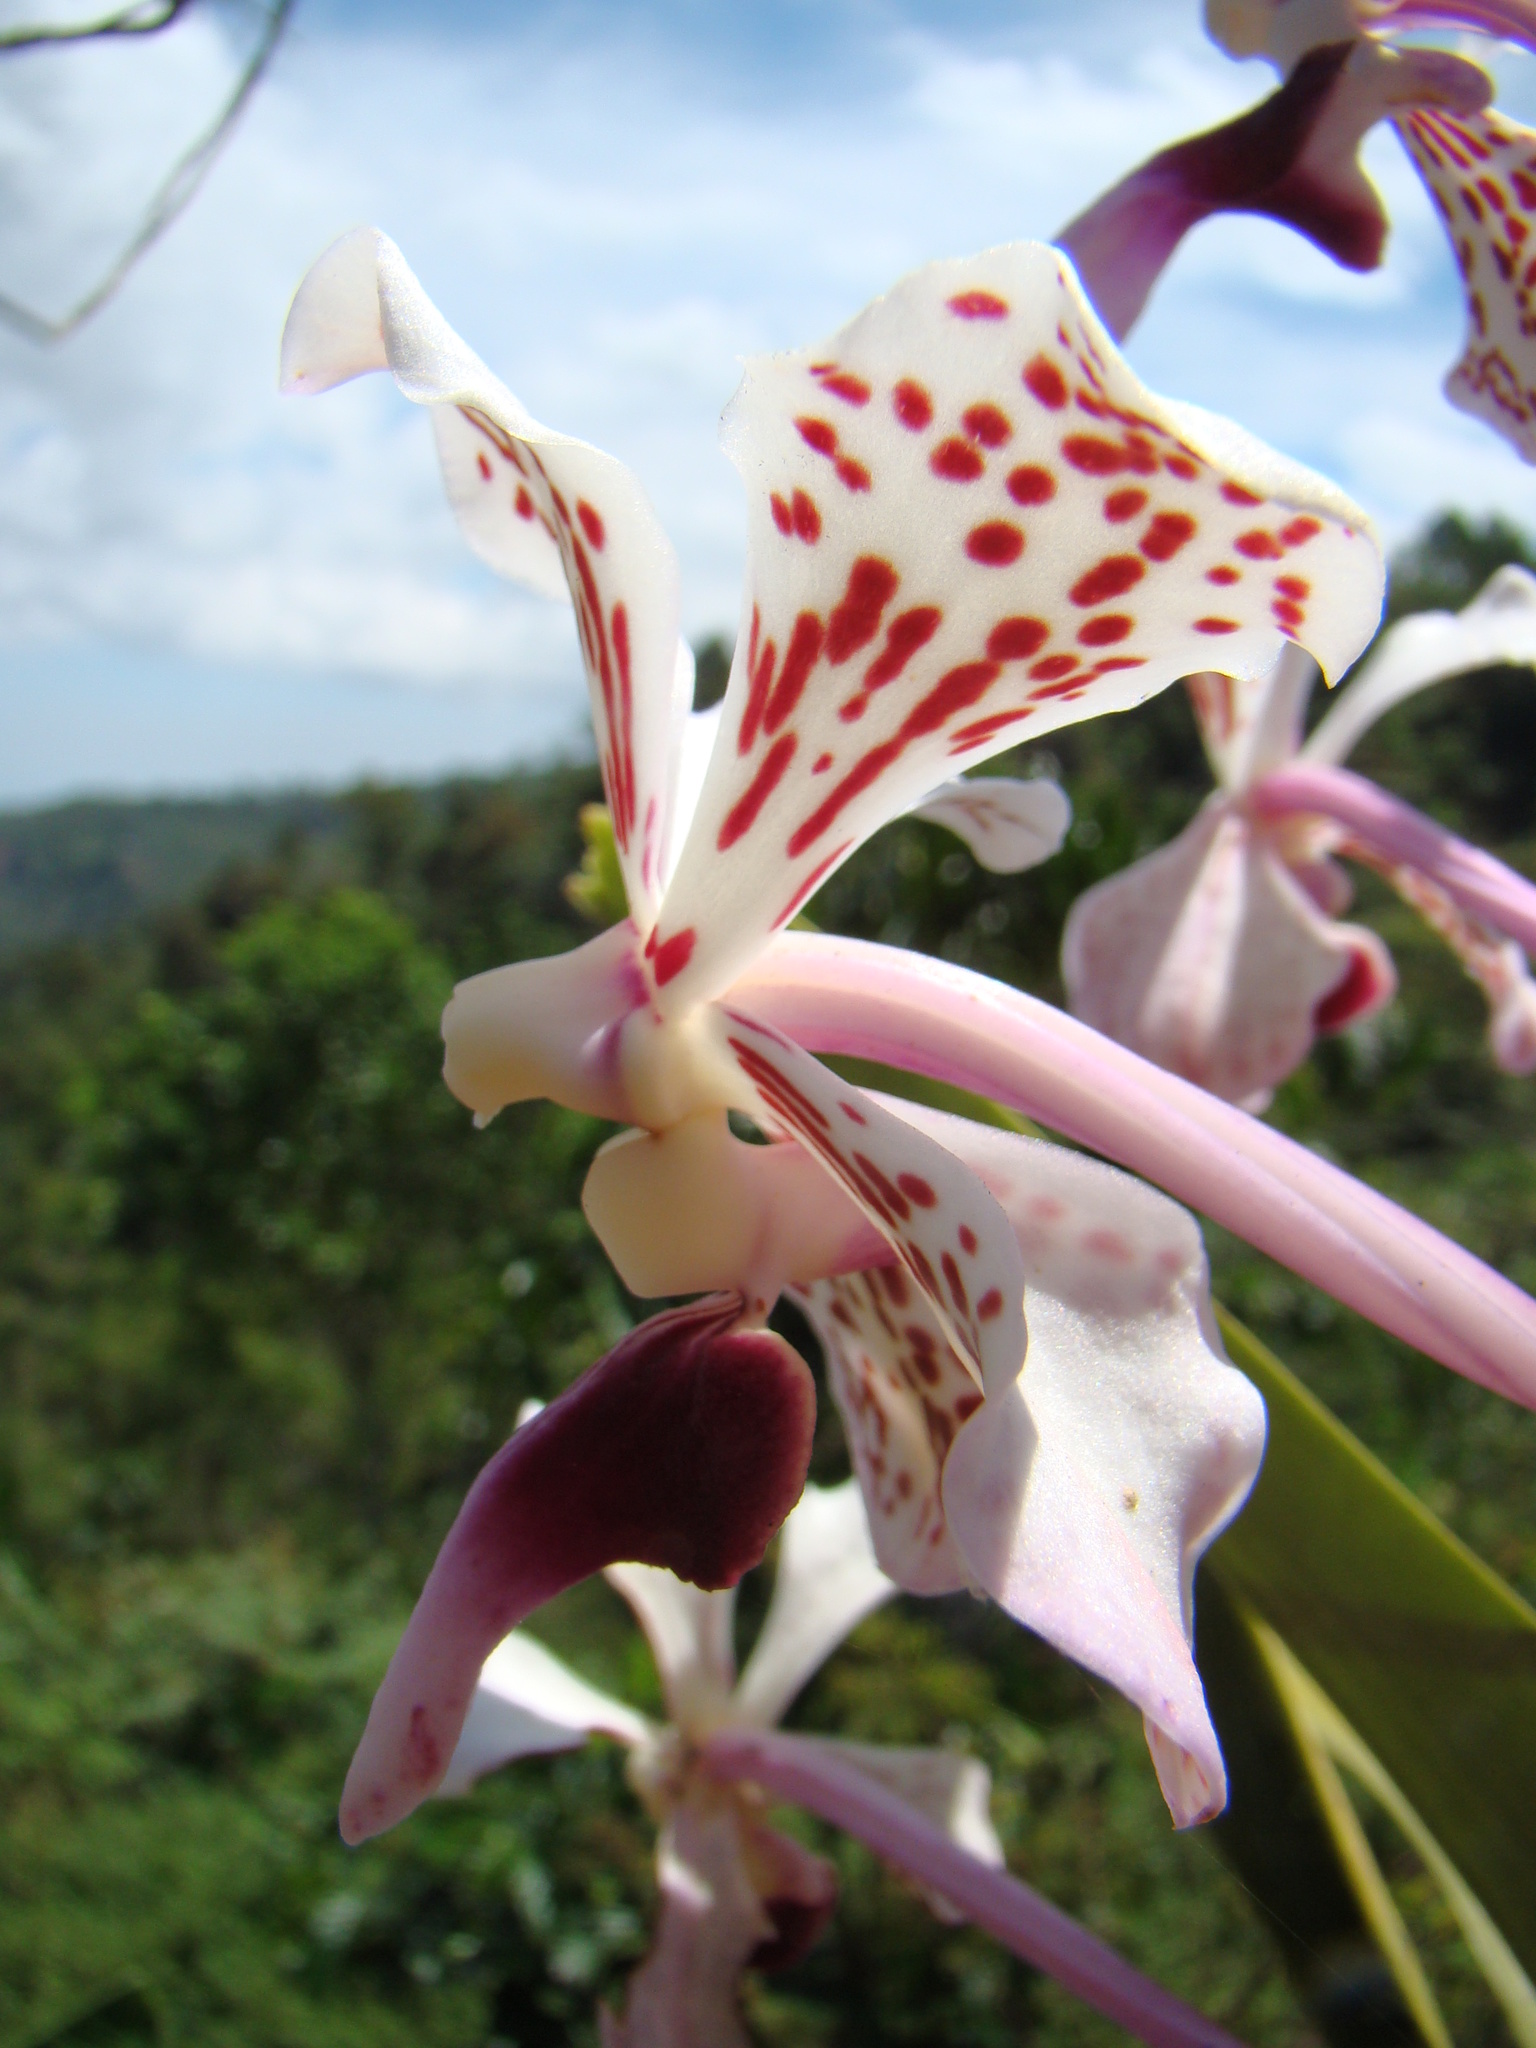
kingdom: Plantae
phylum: Tracheophyta
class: Liliopsida
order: Asparagales
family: Orchidaceae
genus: Vanda
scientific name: Vanda suavis
